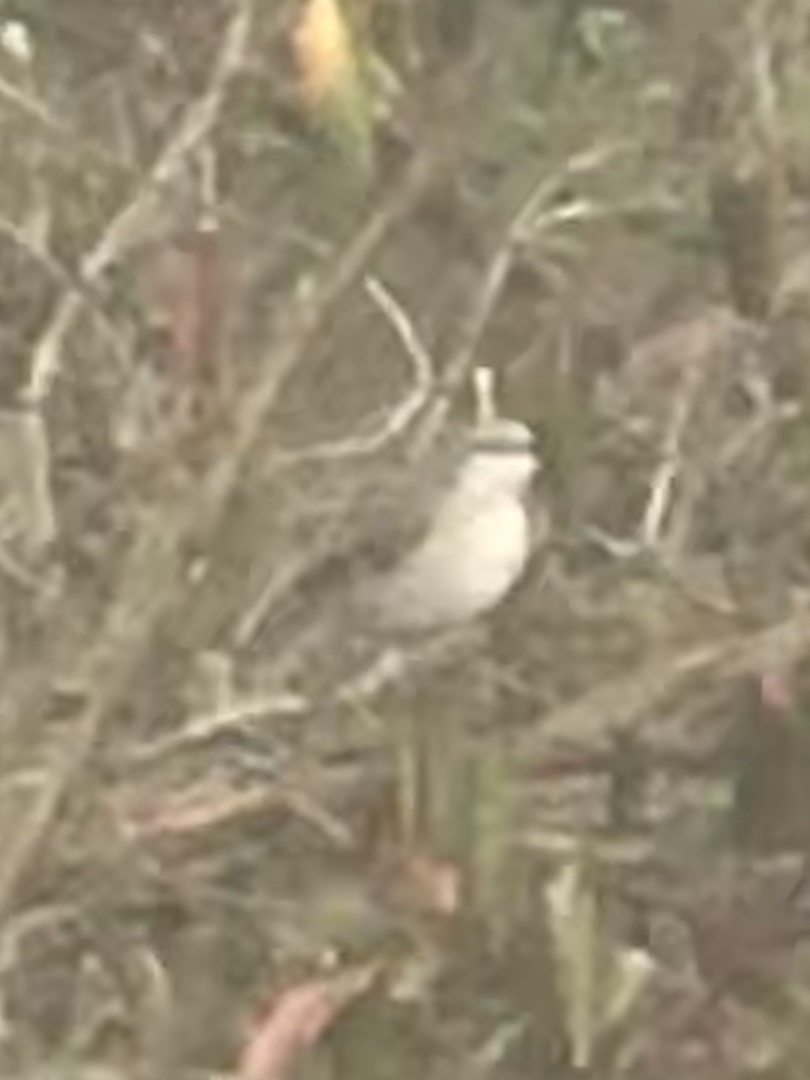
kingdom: Animalia
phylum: Chordata
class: Aves
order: Passeriformes
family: Mimidae
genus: Mimus
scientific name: Mimus polyglottos
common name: Northern mockingbird
